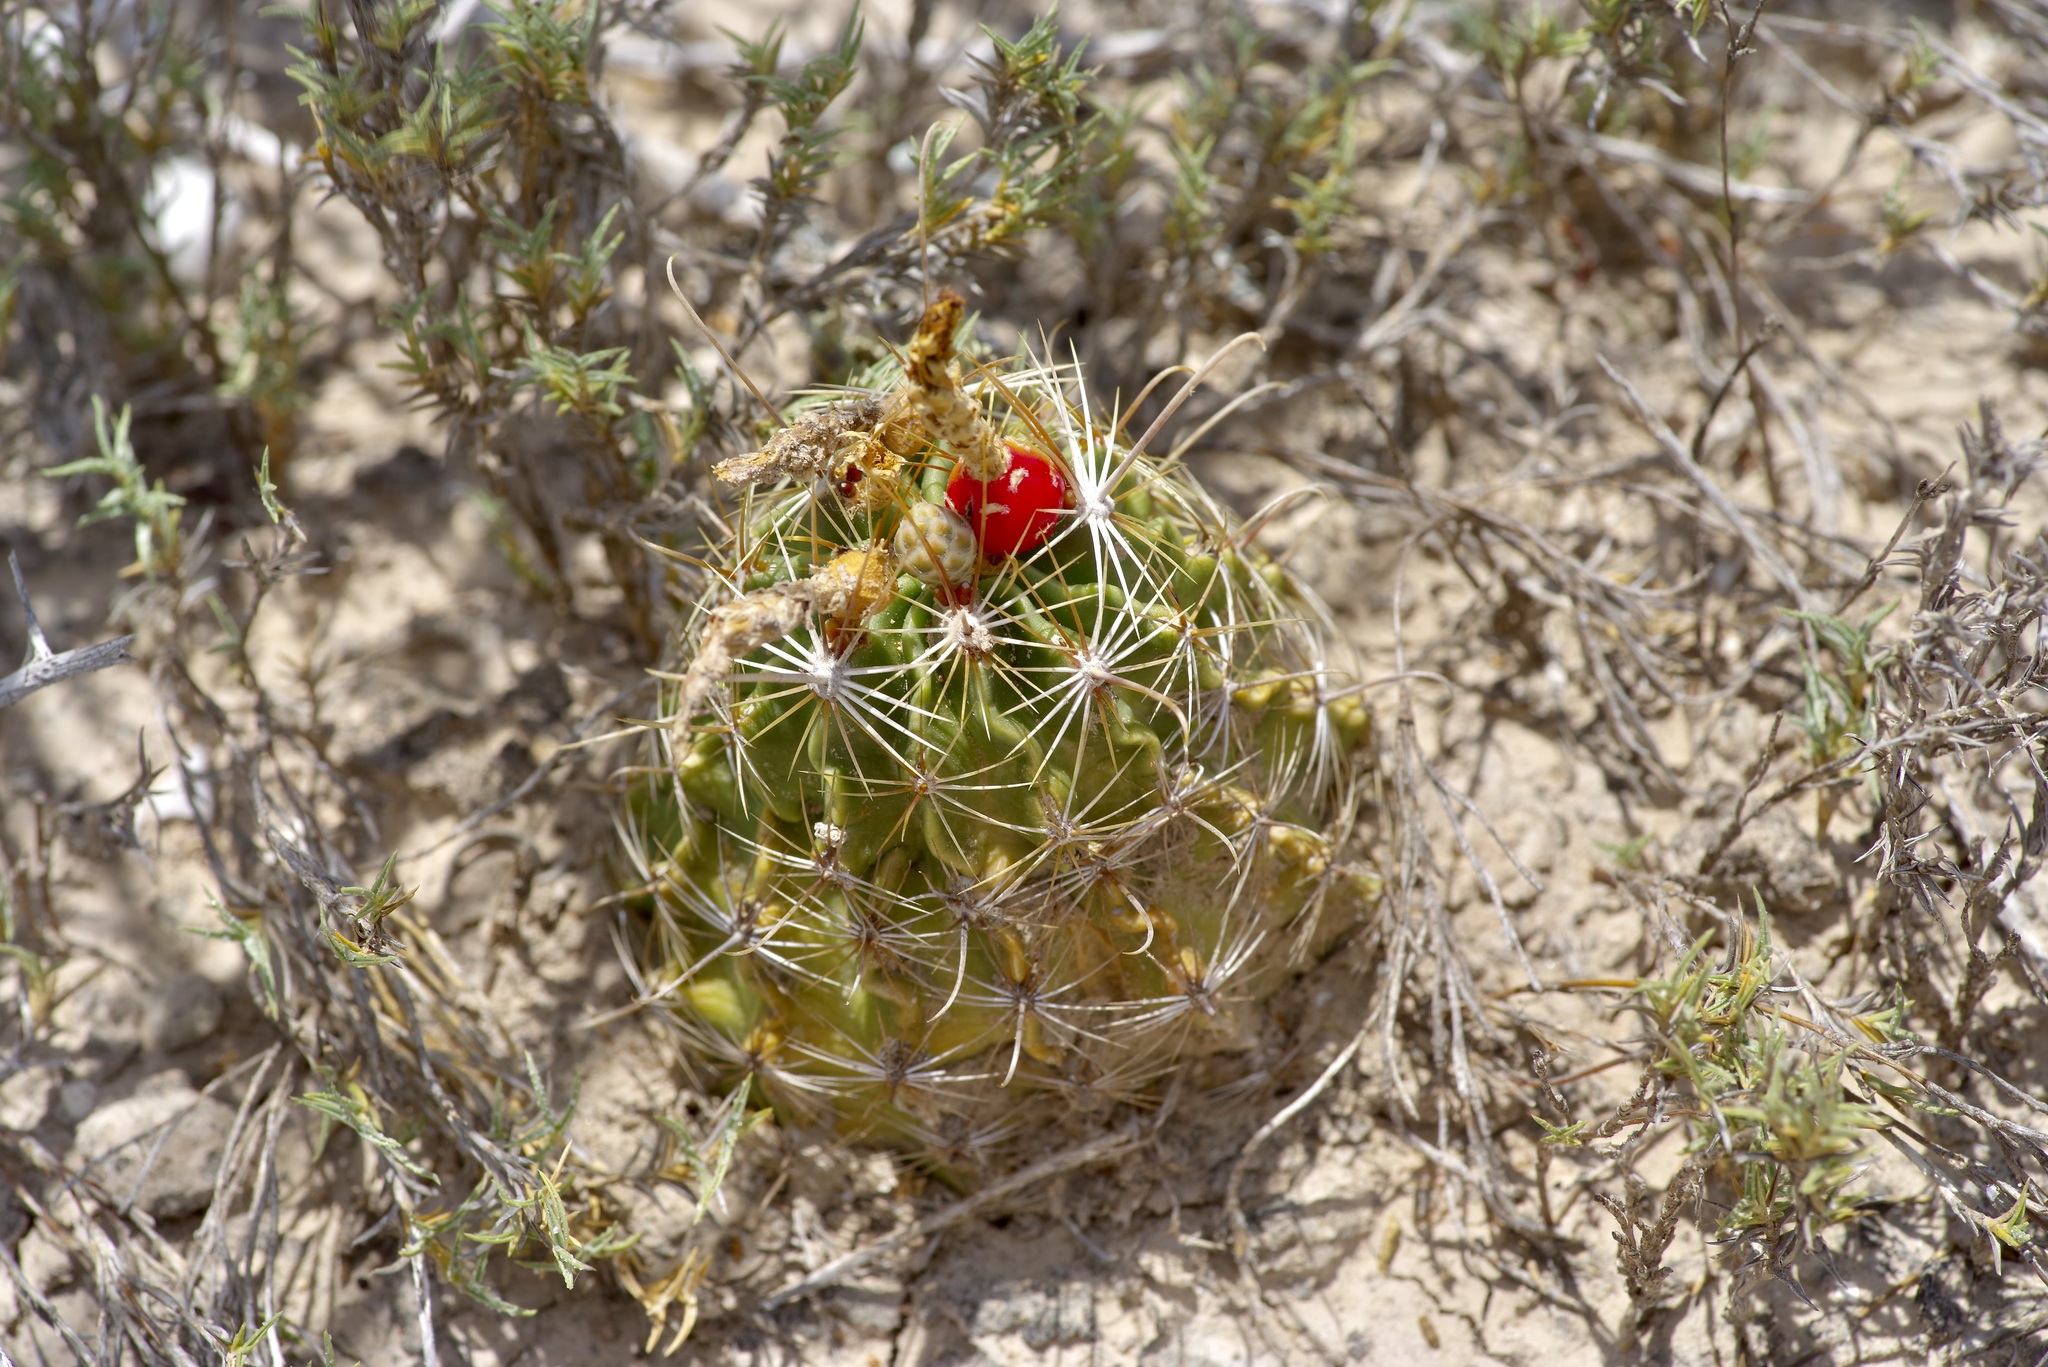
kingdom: Plantae
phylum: Tracheophyta
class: Magnoliopsida
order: Caryophyllales
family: Cactaceae
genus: Thelocactus
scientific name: Thelocactus setispinus
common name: Miniature barrel cactus
